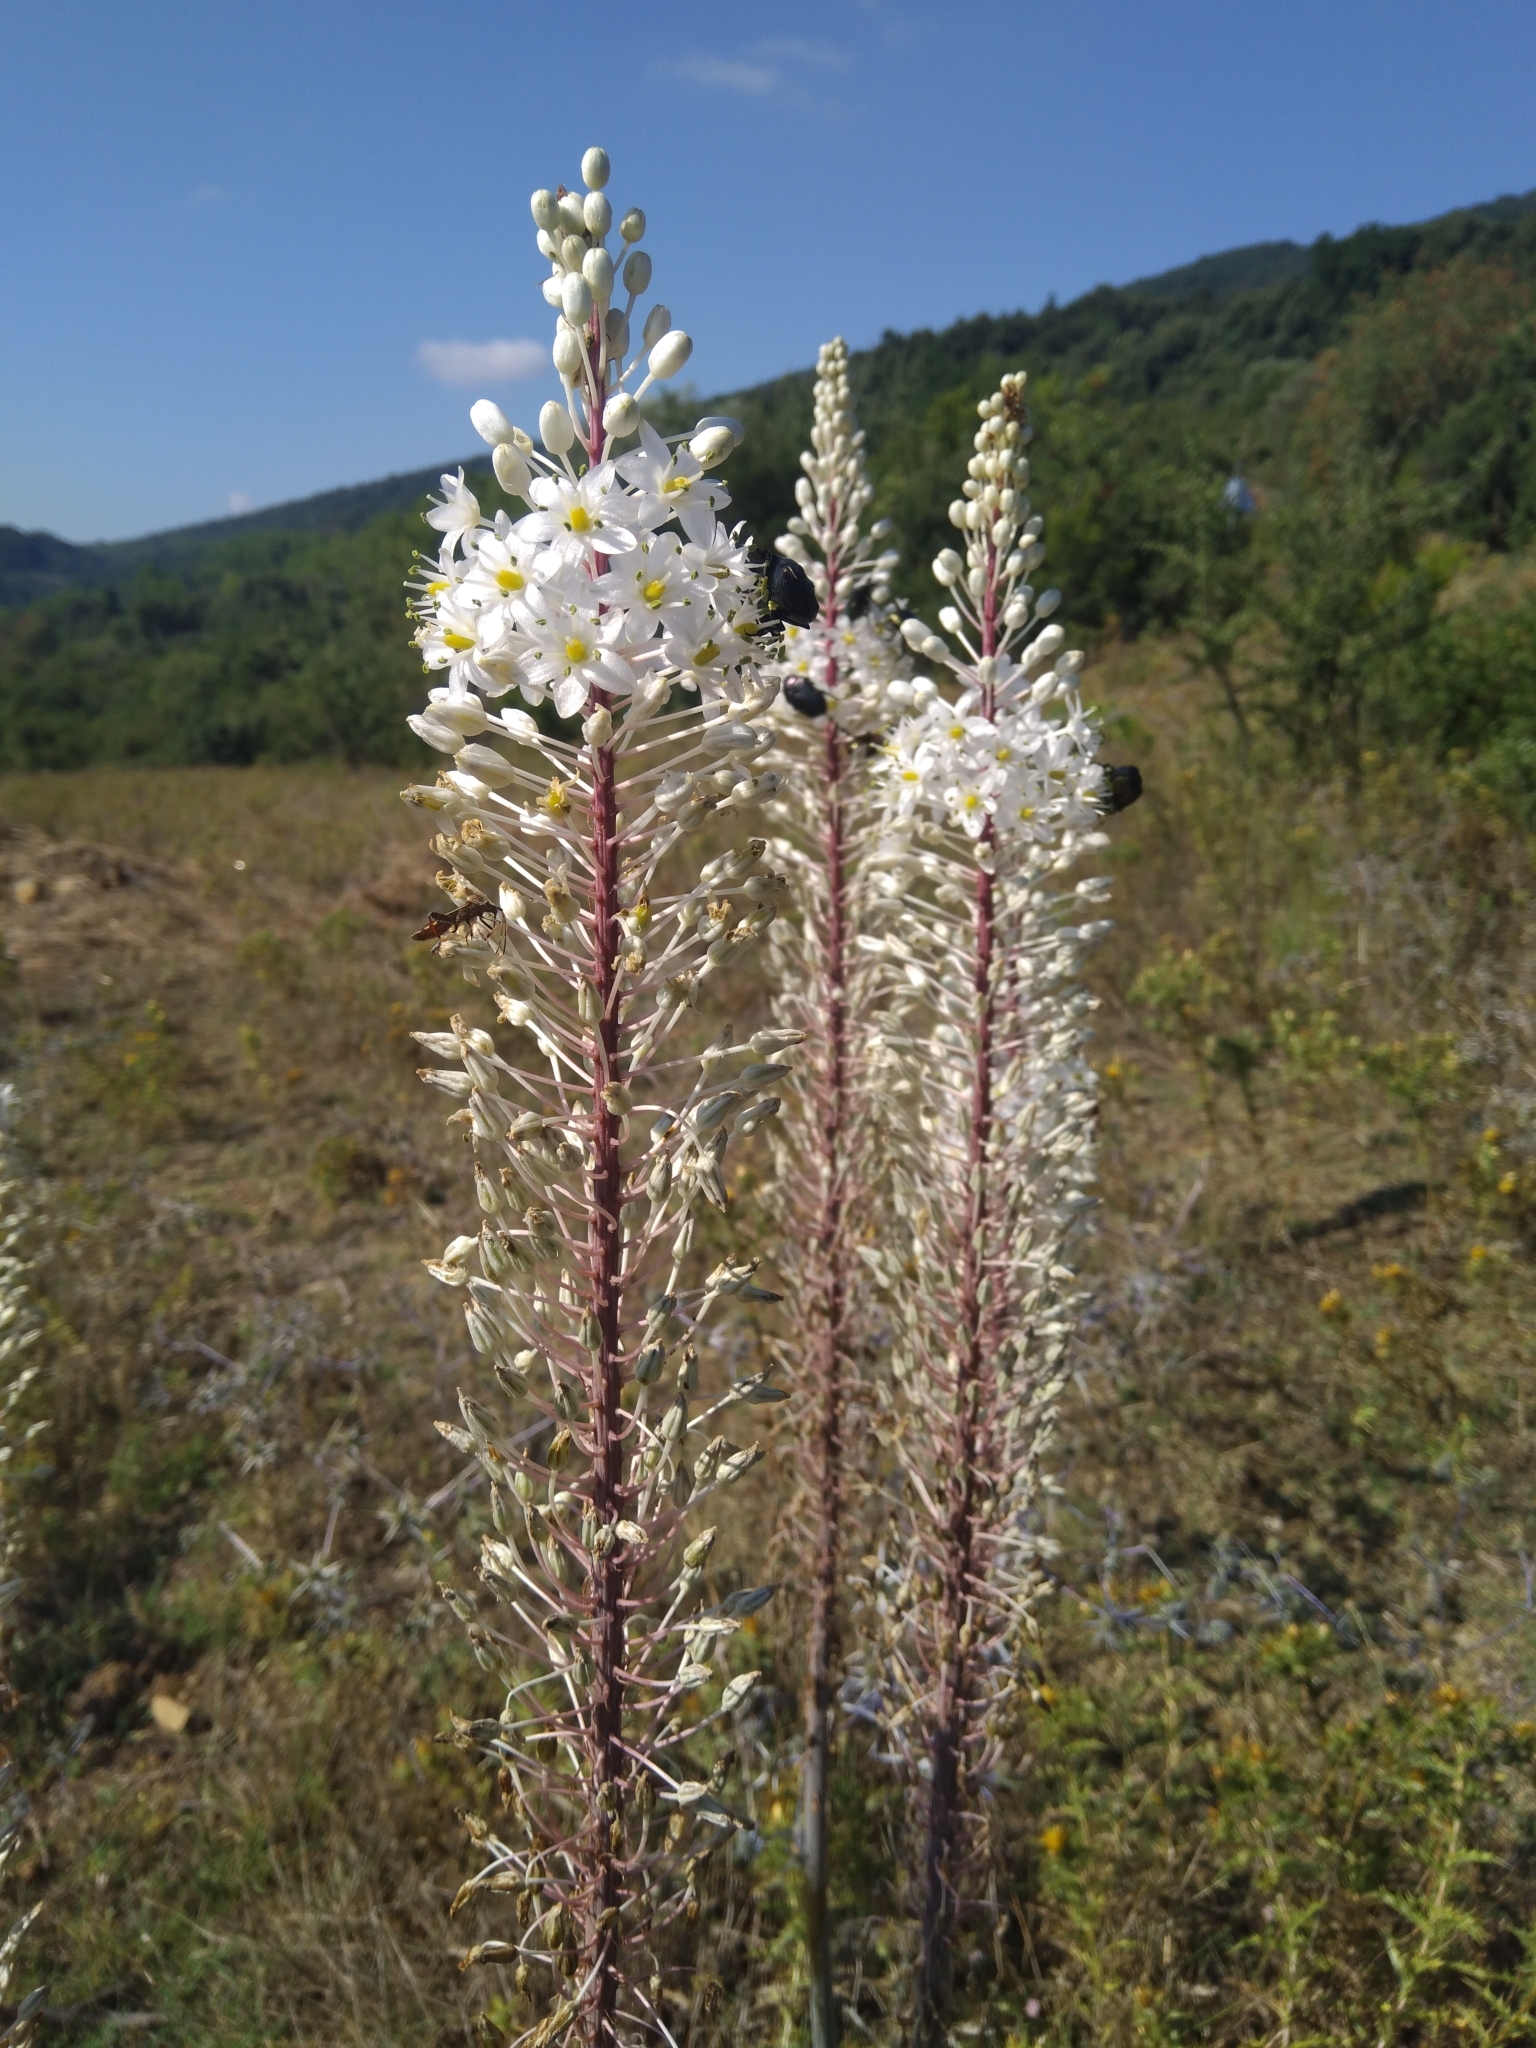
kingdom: Plantae
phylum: Tracheophyta
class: Liliopsida
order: Asparagales
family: Asparagaceae
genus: Drimia
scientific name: Drimia numidica
